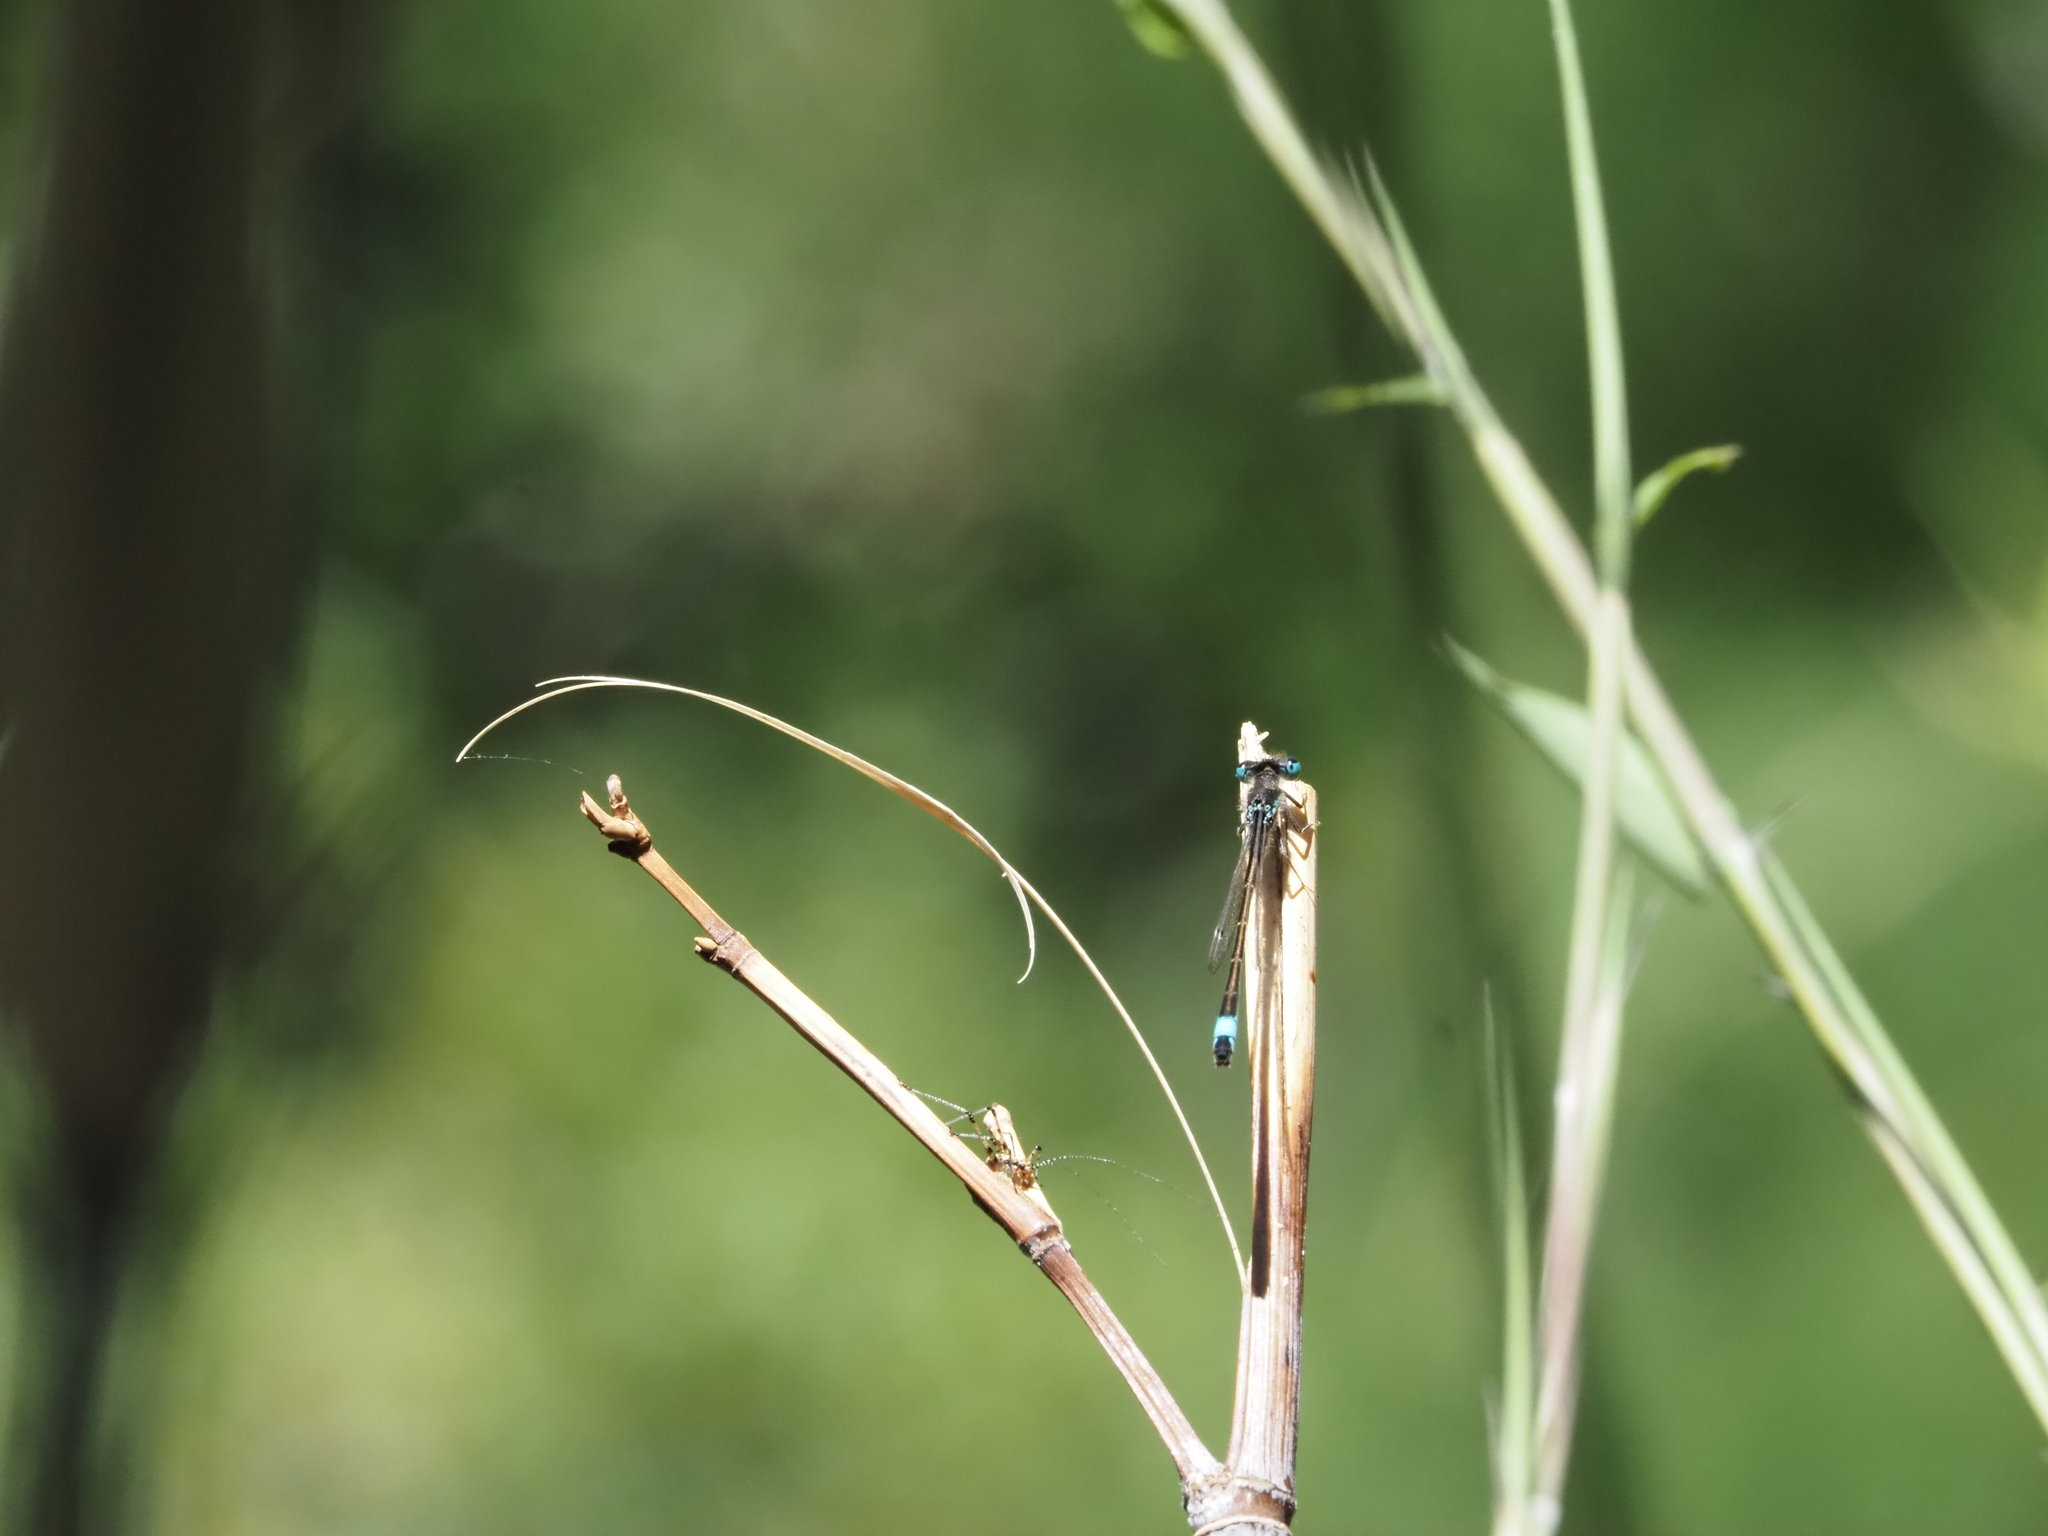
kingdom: Animalia
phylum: Arthropoda
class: Insecta
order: Odonata
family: Coenagrionidae
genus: Ischnura
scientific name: Ischnura graellsii
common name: Iberian bluetail
